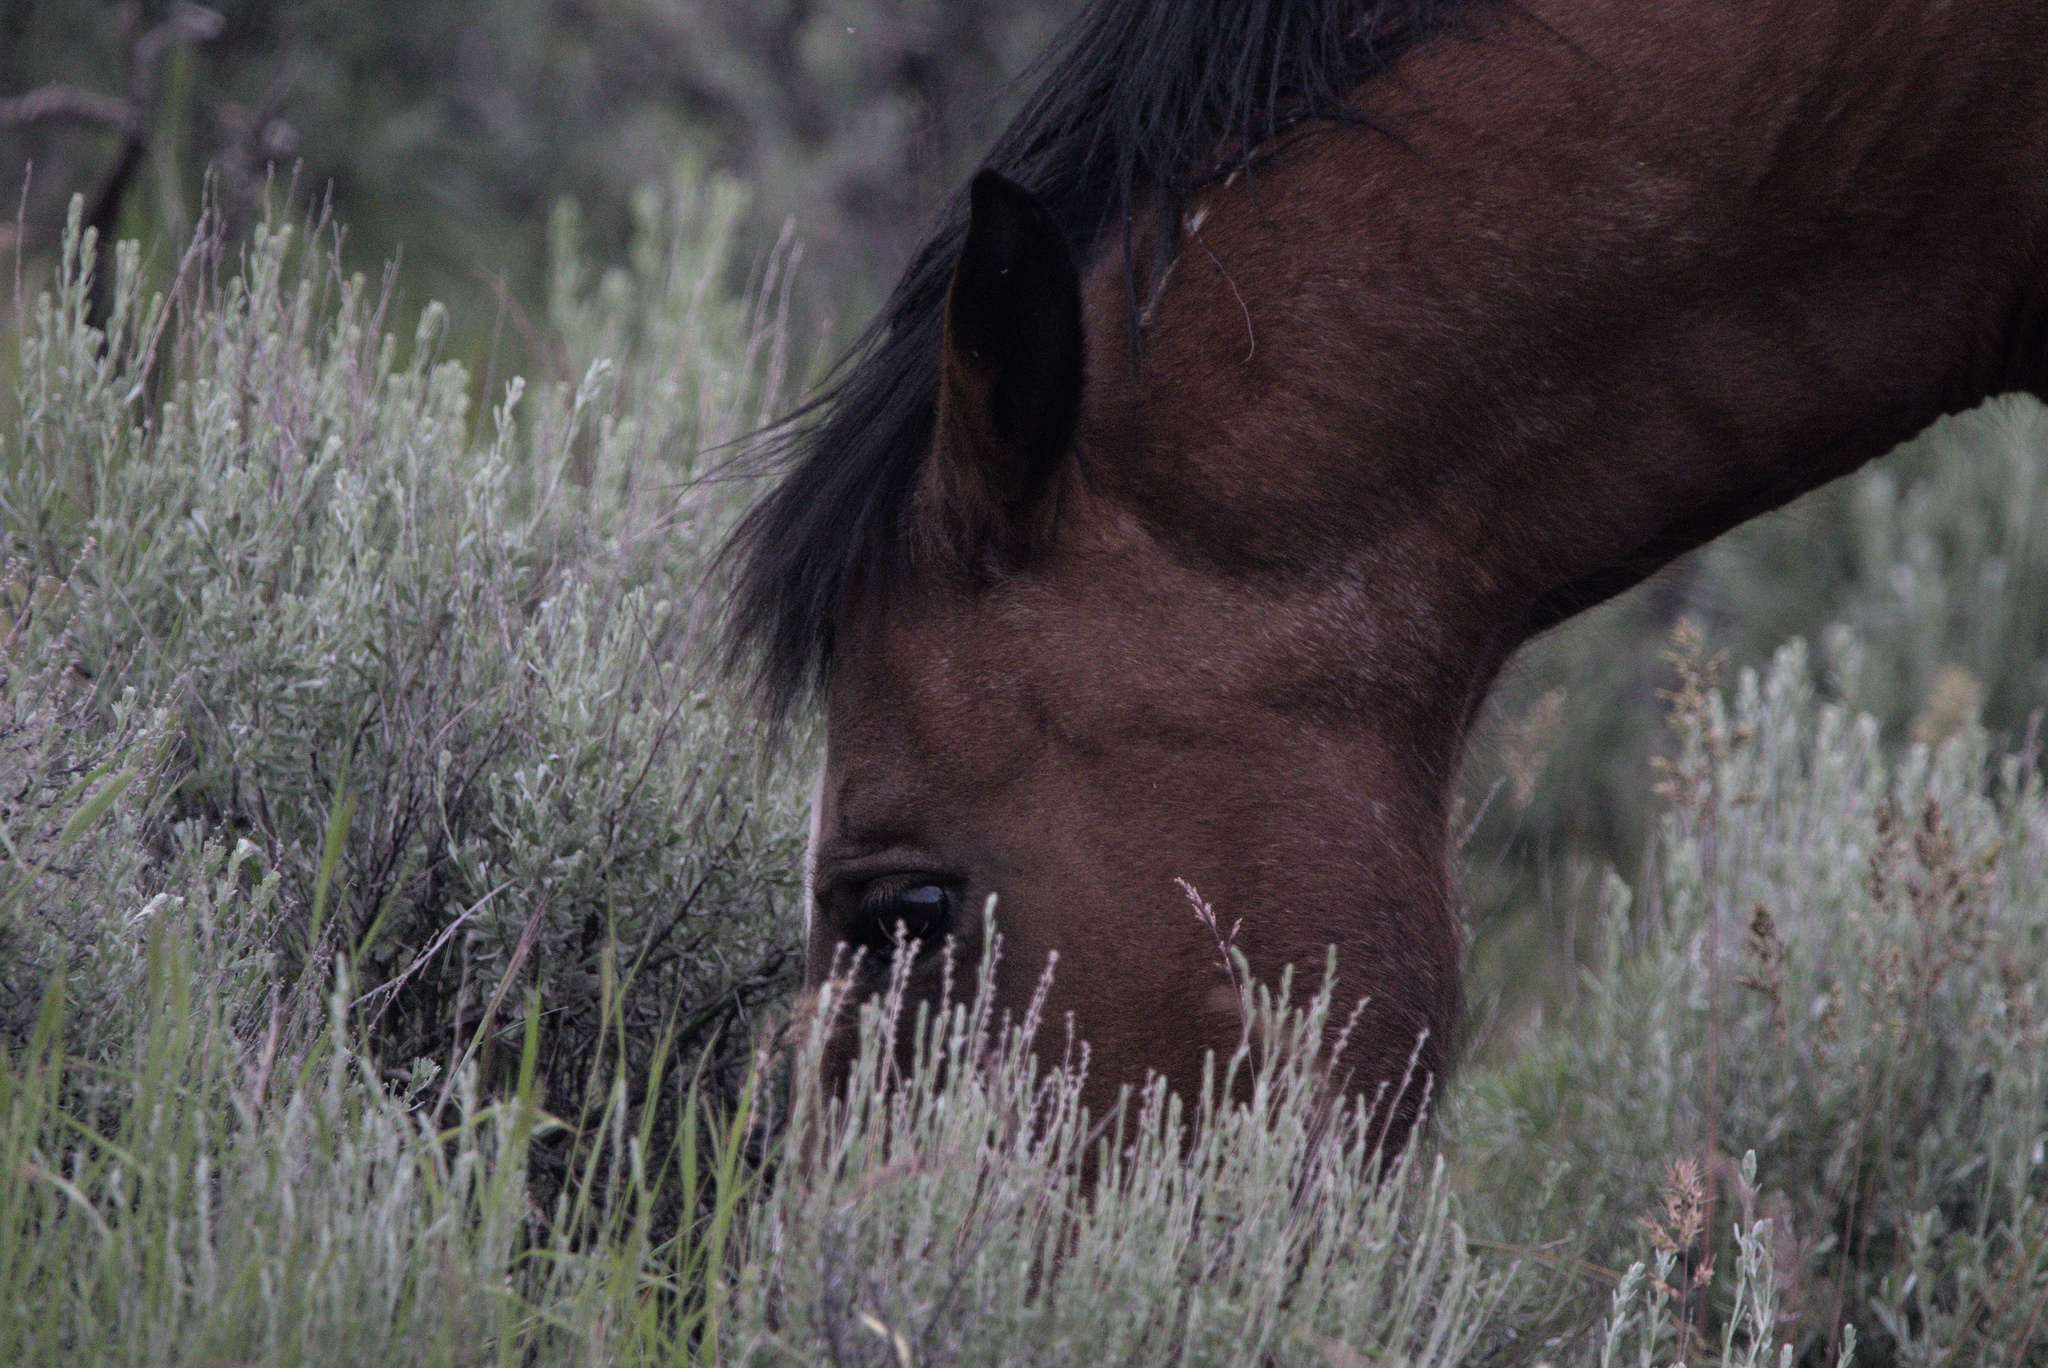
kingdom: Animalia
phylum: Chordata
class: Mammalia
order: Perissodactyla
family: Equidae
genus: Equus
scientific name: Equus caballus
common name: Horse
